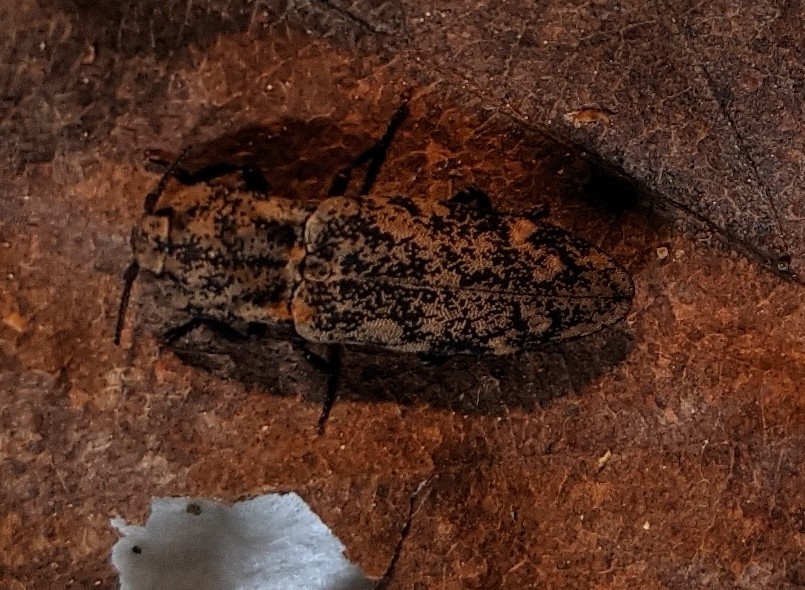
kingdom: Animalia
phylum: Arthropoda
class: Insecta
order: Coleoptera
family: Elateridae
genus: Danosoma
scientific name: Danosoma brevicorne
